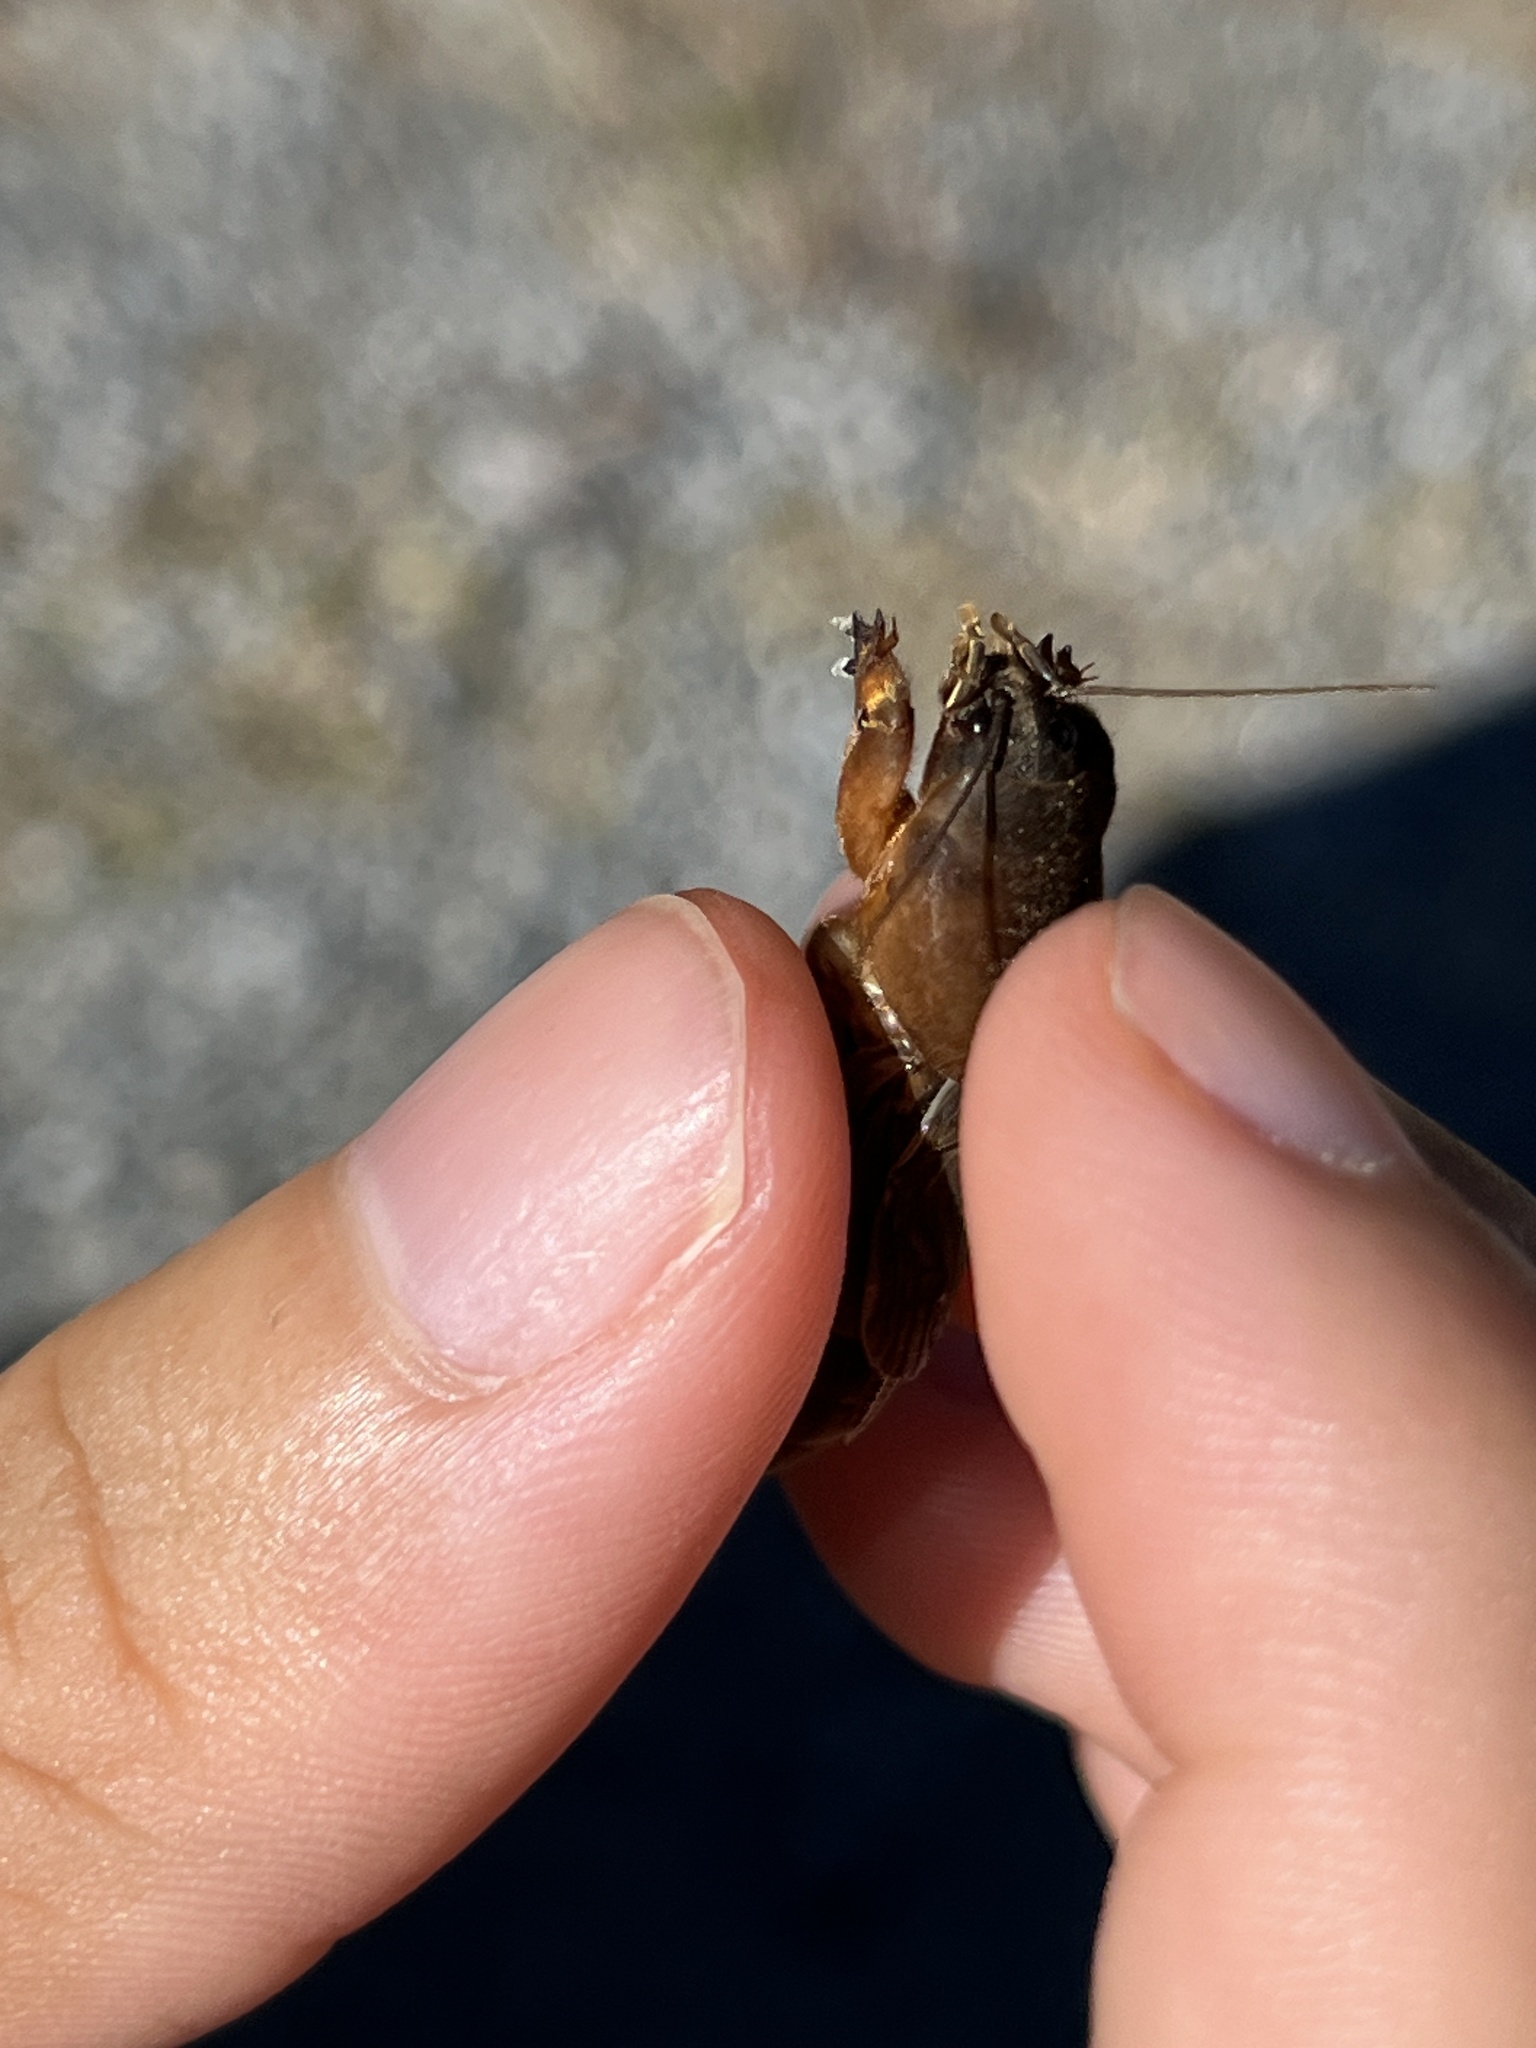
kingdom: Animalia
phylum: Arthropoda
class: Insecta
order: Orthoptera
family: Gryllotalpidae
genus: Neocurtilla
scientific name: Neocurtilla hexadactyla
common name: Northern mole cricket
